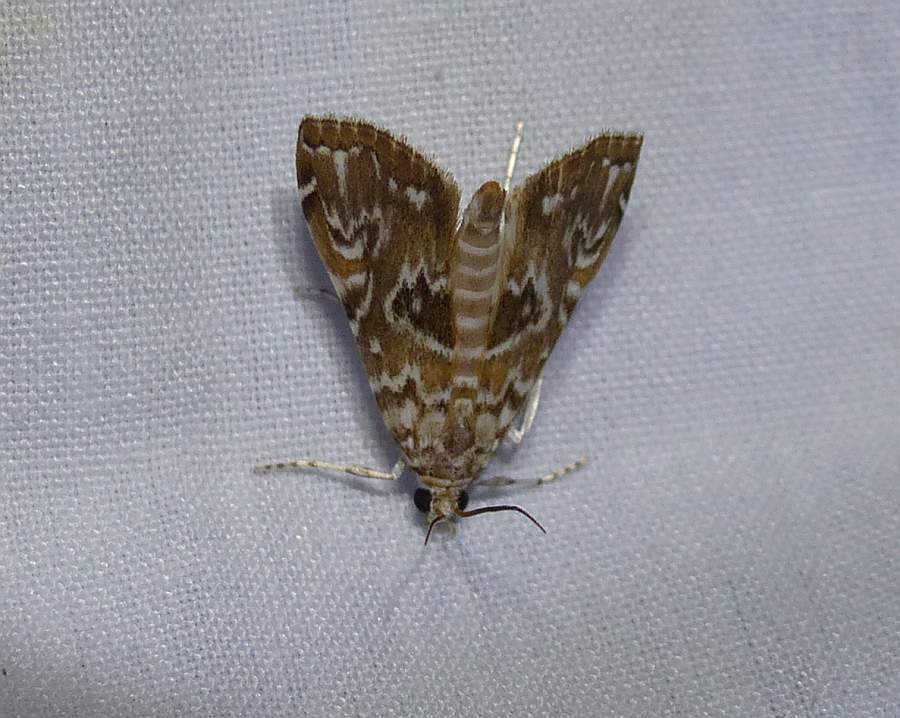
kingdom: Animalia
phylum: Arthropoda
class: Insecta
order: Lepidoptera
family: Crambidae
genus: Elophila
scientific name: Elophila gyralis
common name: Waterlily borer moth
